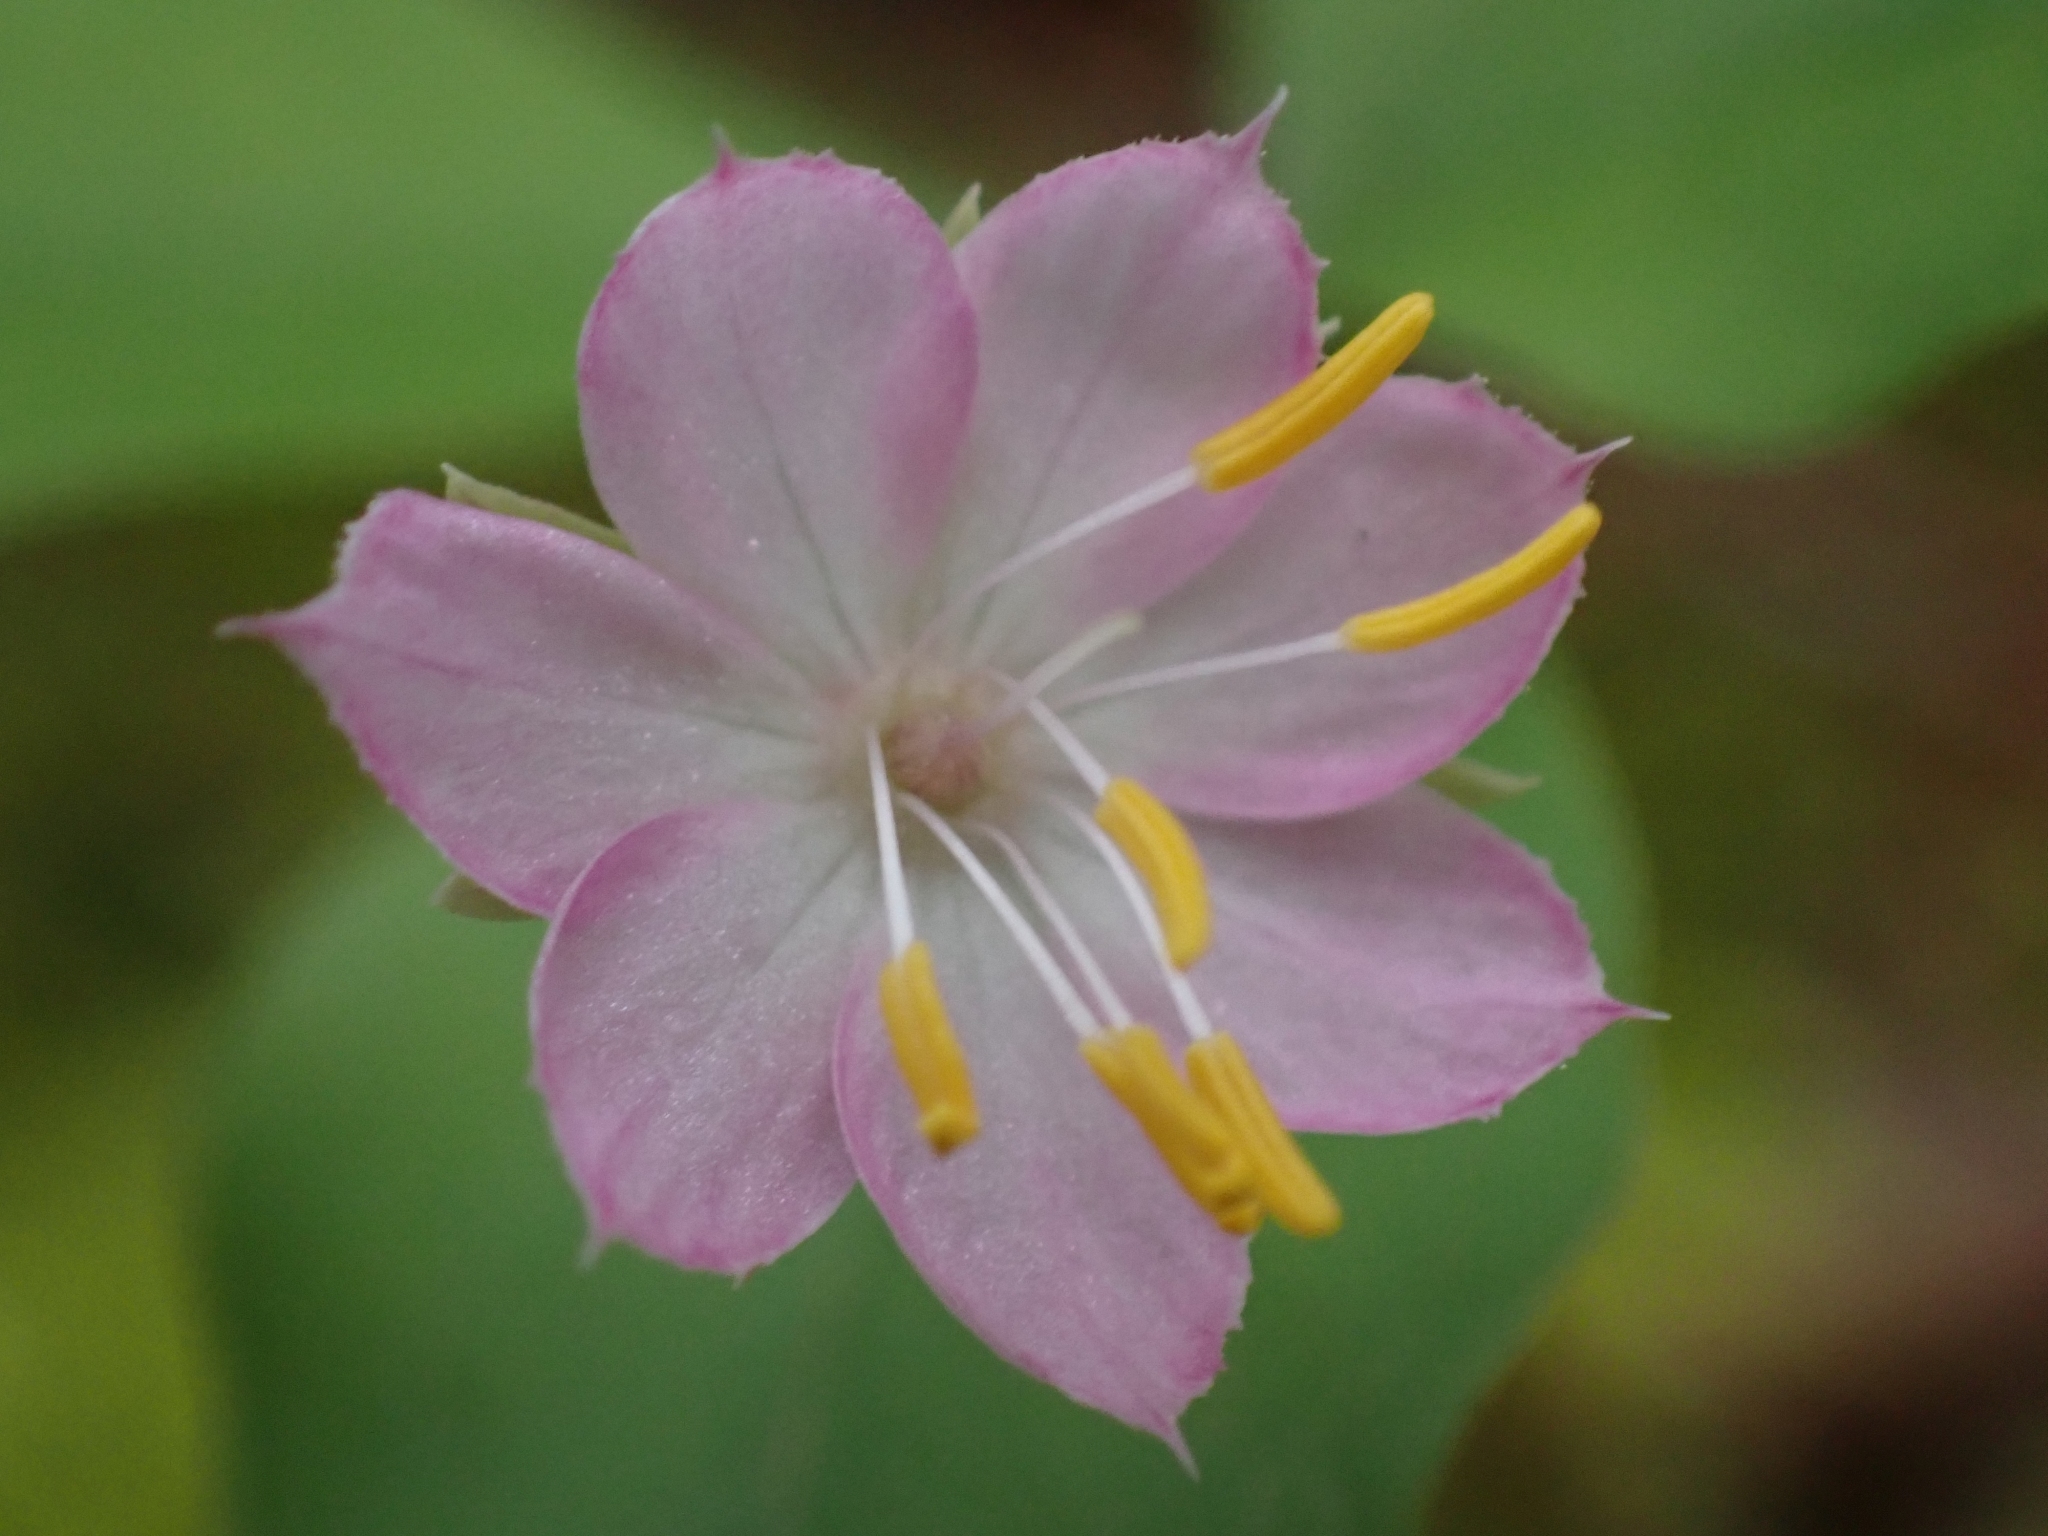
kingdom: Plantae
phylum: Tracheophyta
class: Magnoliopsida
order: Ericales
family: Primulaceae
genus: Lysimachia
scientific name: Lysimachia latifolia
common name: Pacific starflower
